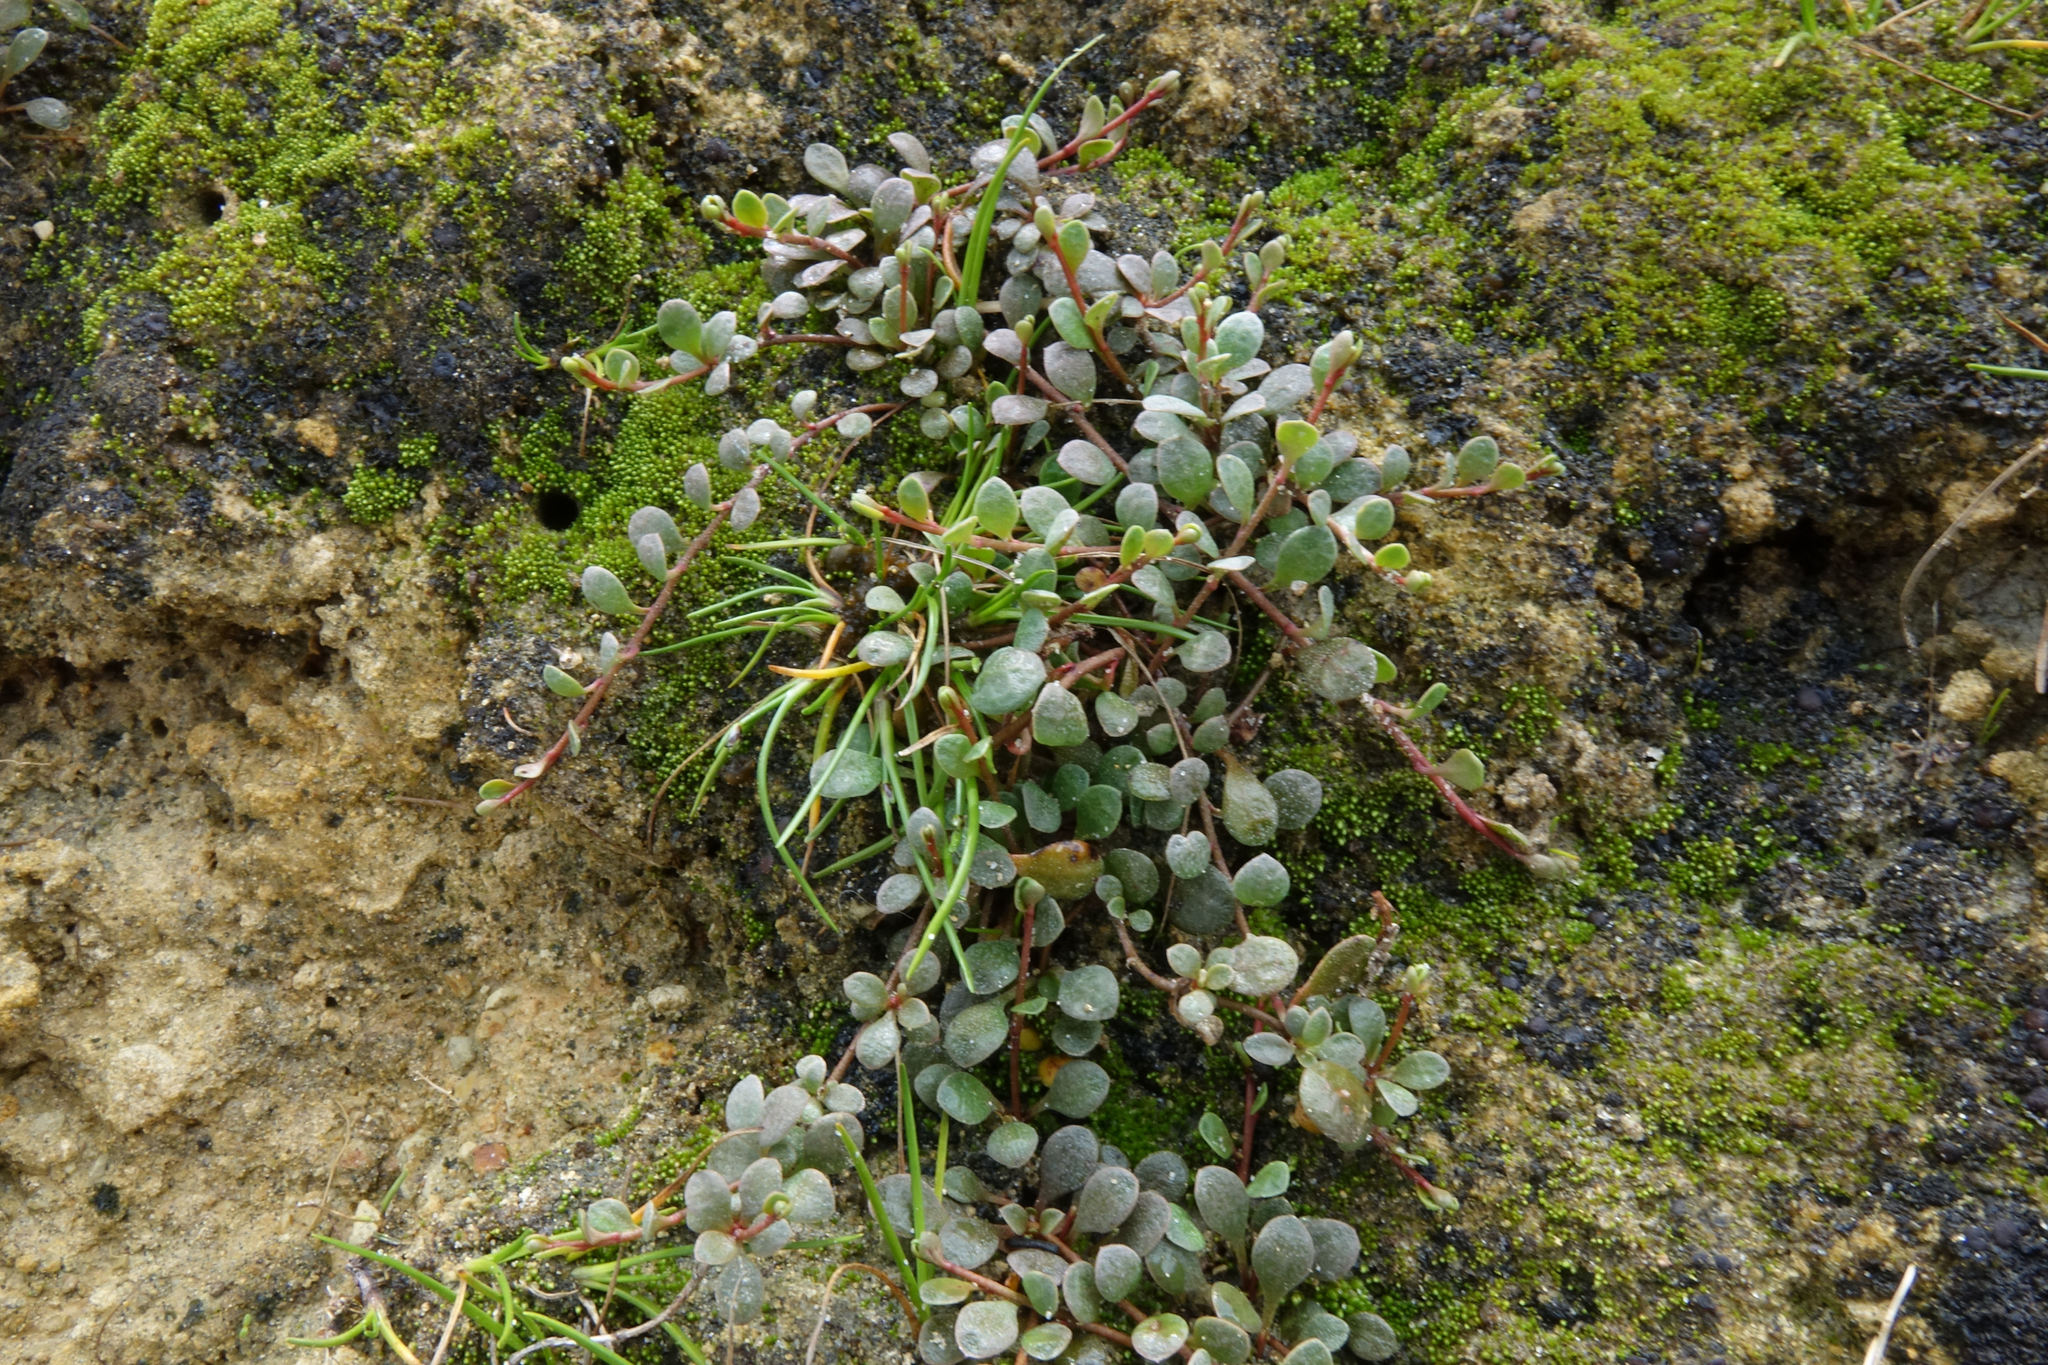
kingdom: Plantae
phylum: Tracheophyta
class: Magnoliopsida
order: Ericales
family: Primulaceae
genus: Samolus
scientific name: Samolus repens
